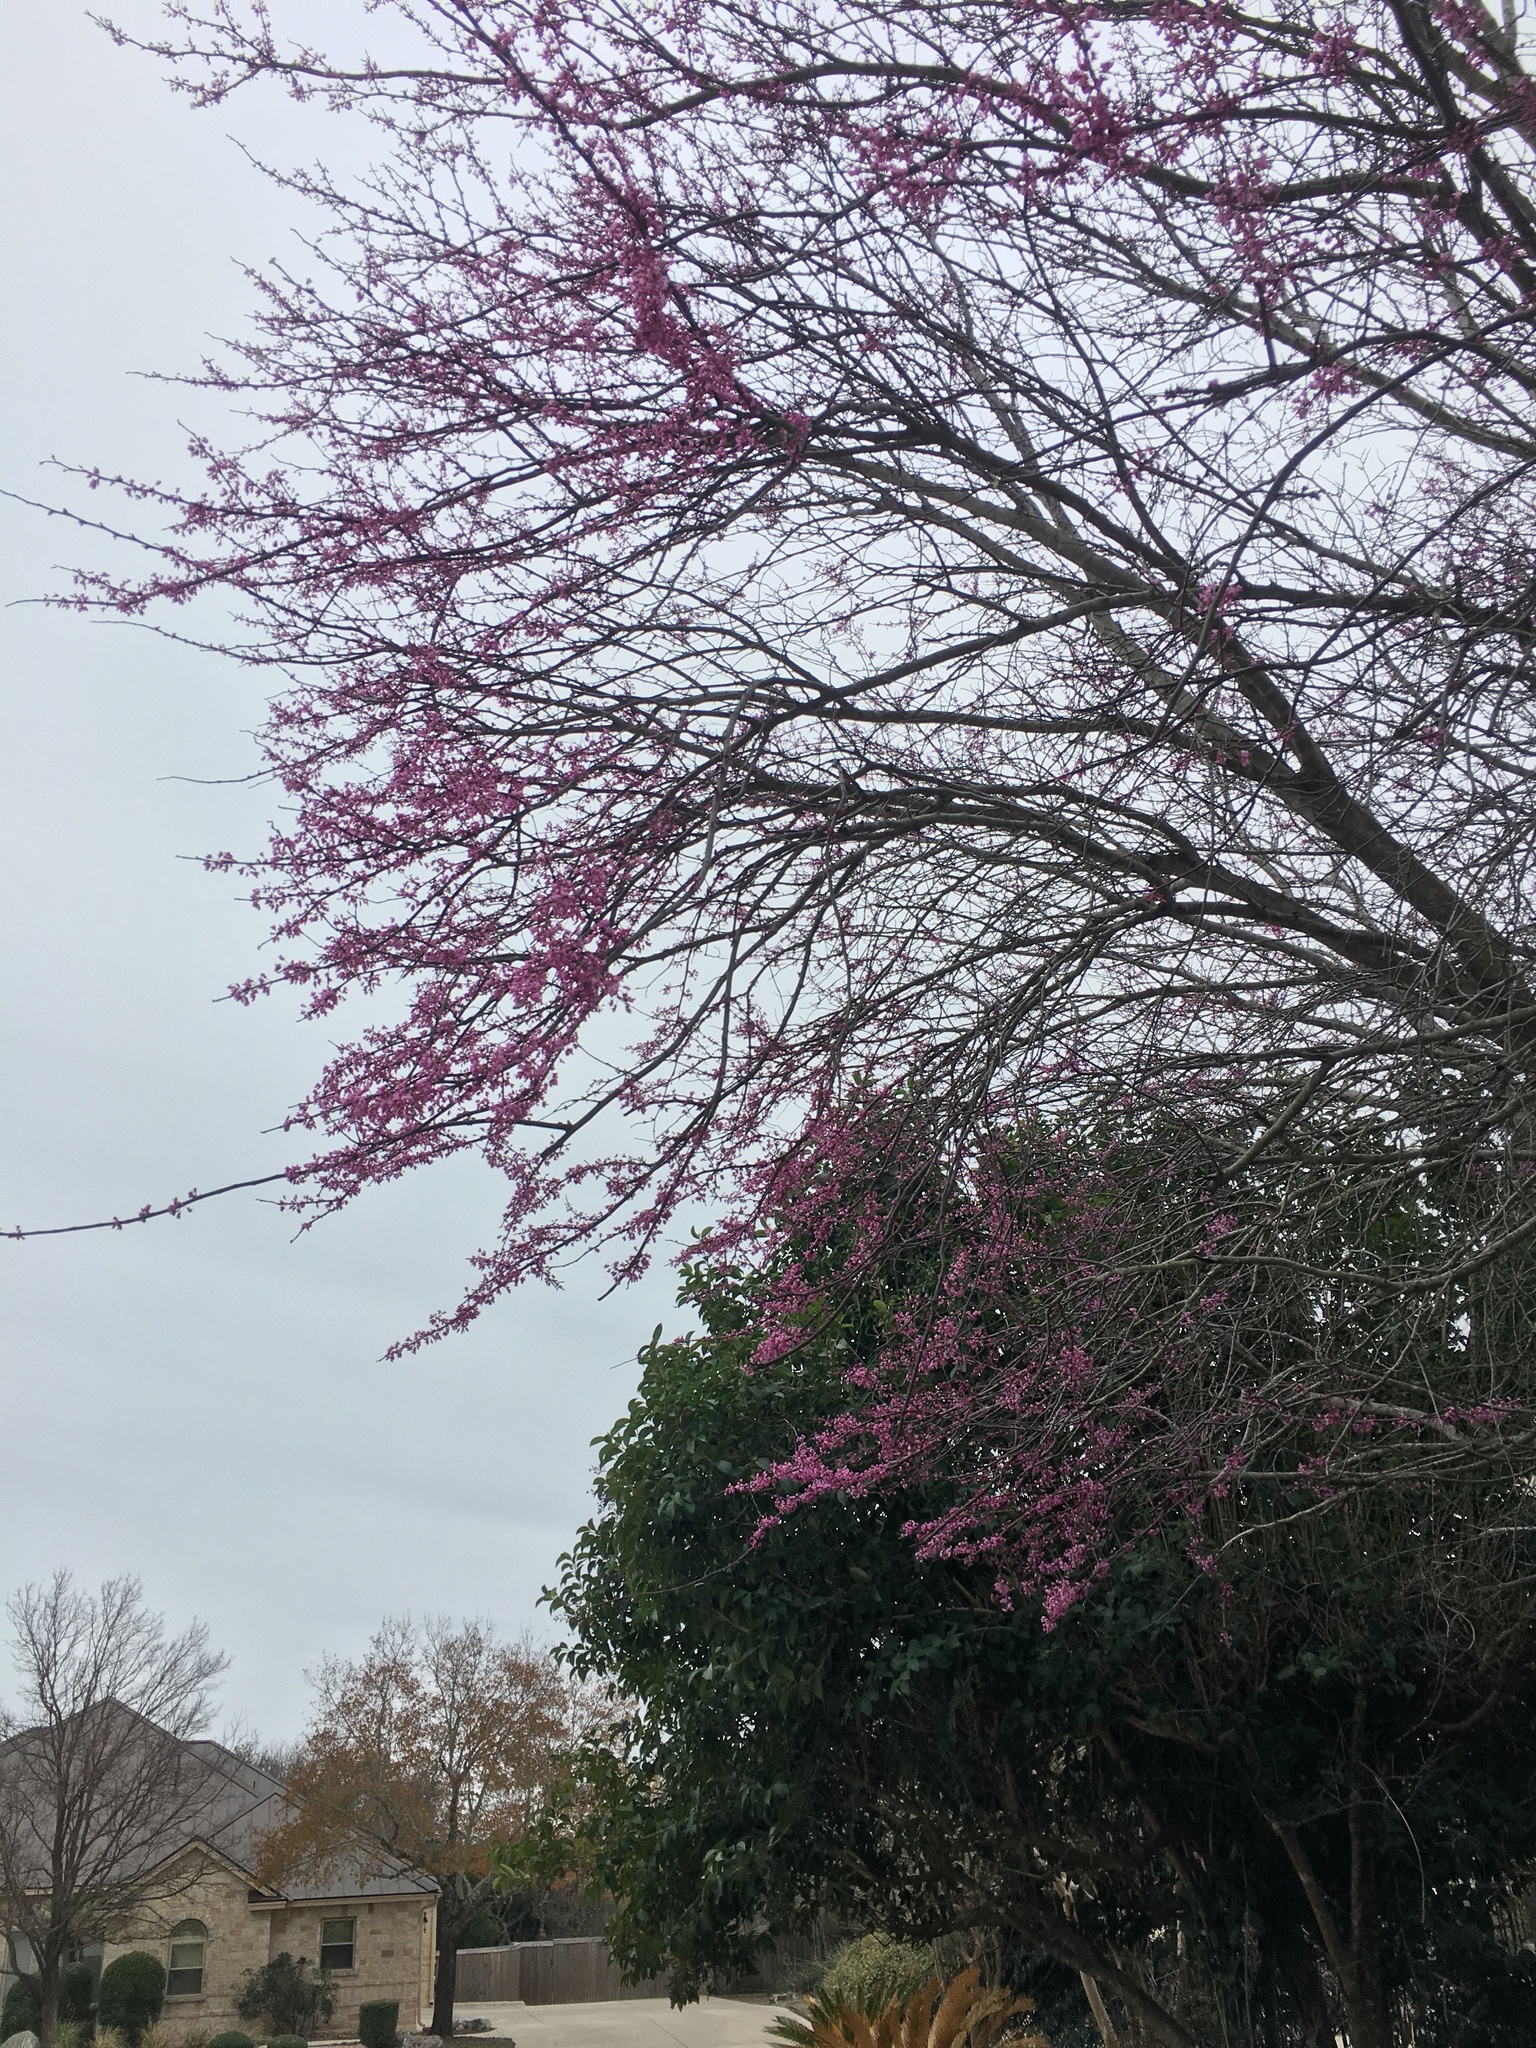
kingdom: Plantae
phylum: Tracheophyta
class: Magnoliopsida
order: Fabales
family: Fabaceae
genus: Cercis
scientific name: Cercis canadensis
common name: Eastern redbud
